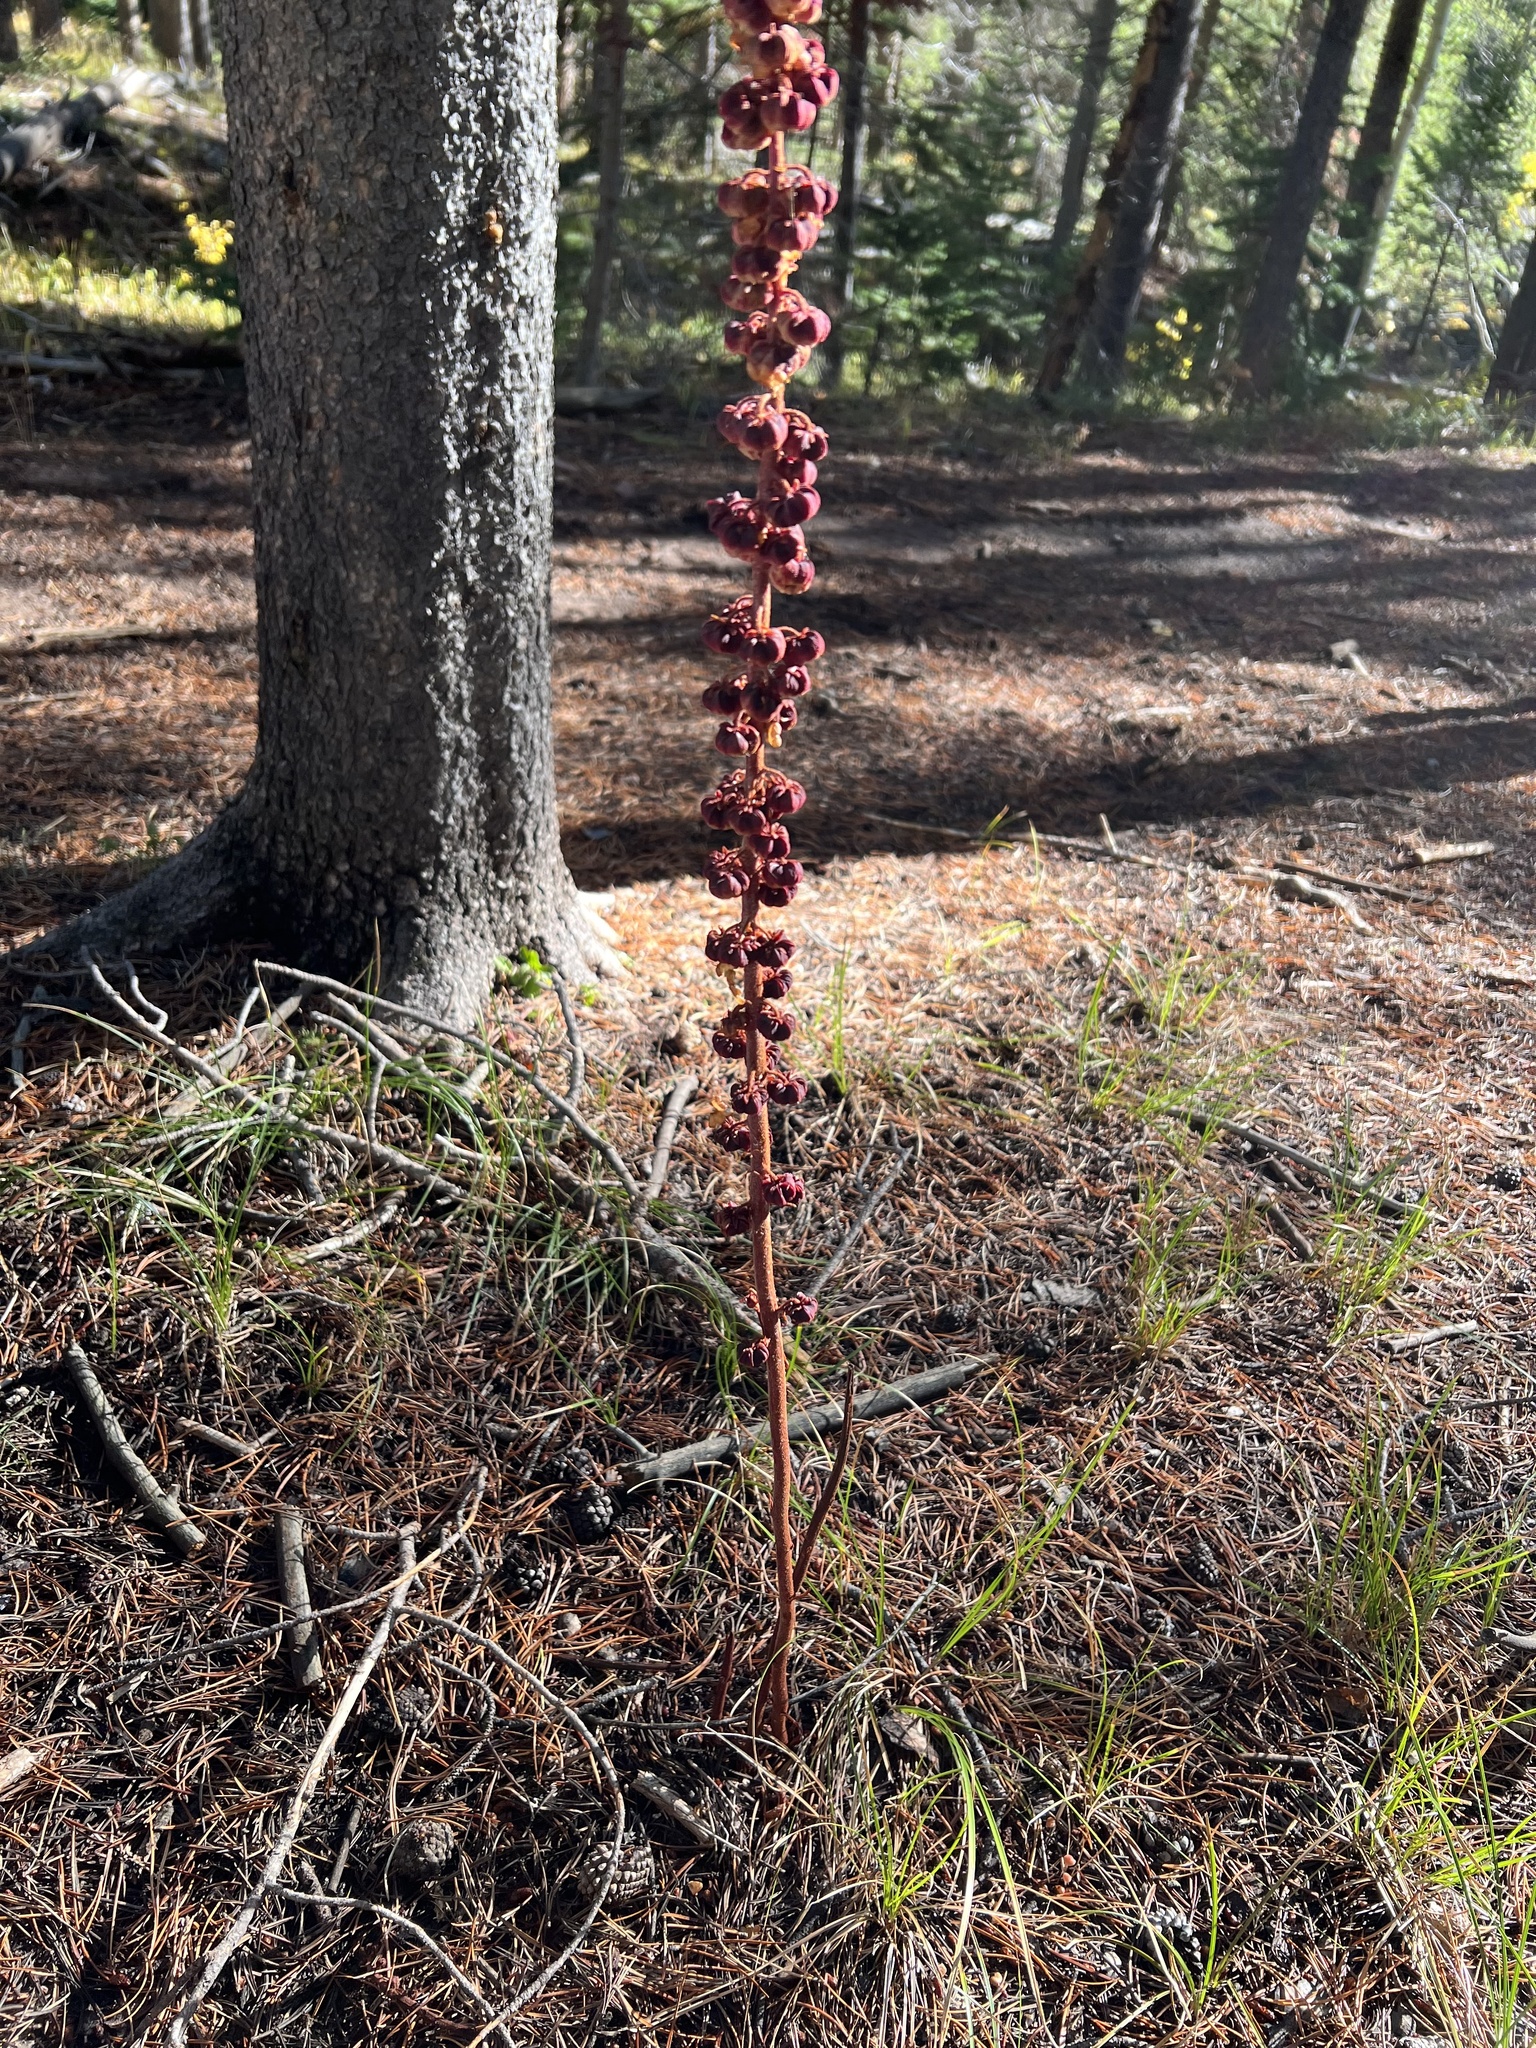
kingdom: Plantae
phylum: Tracheophyta
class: Magnoliopsida
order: Ericales
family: Ericaceae
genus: Pterospora
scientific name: Pterospora andromedea
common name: Giant bird's-nest
